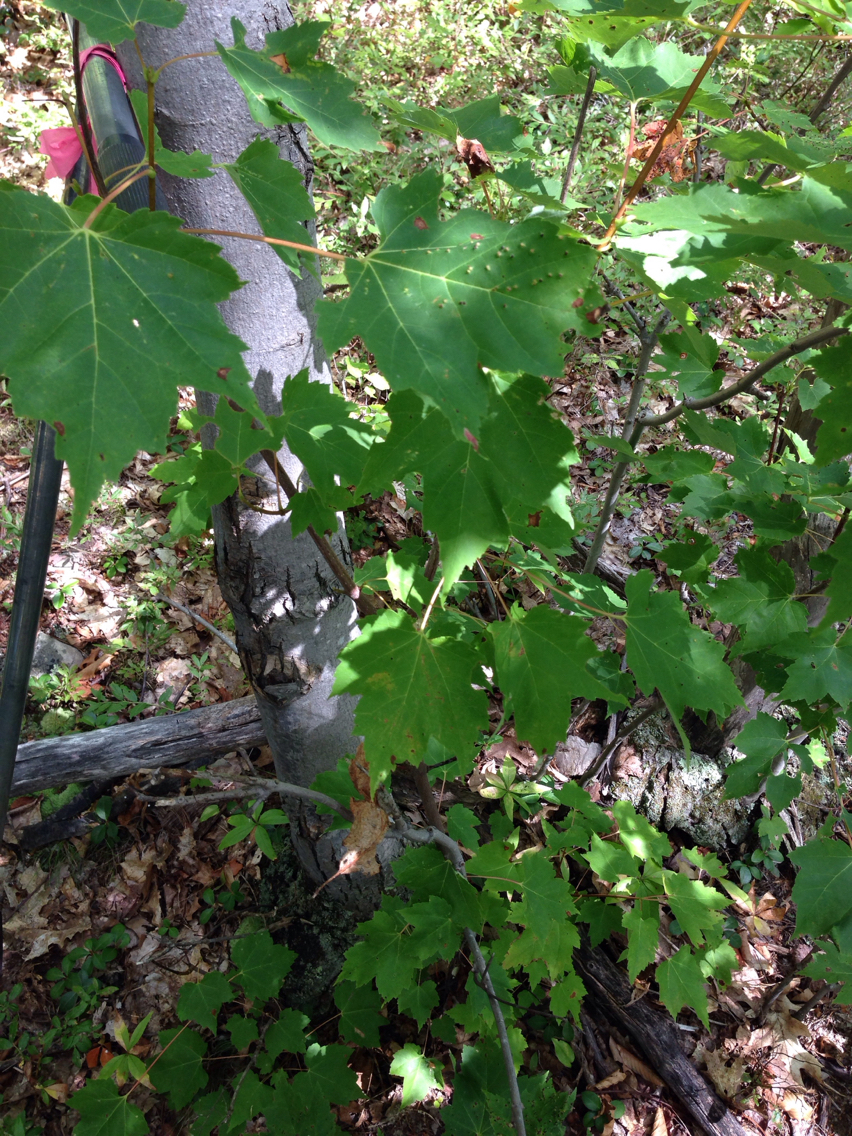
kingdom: Plantae
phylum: Tracheophyta
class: Magnoliopsida
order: Sapindales
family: Sapindaceae
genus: Acer
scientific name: Acer rubrum
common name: Red maple
